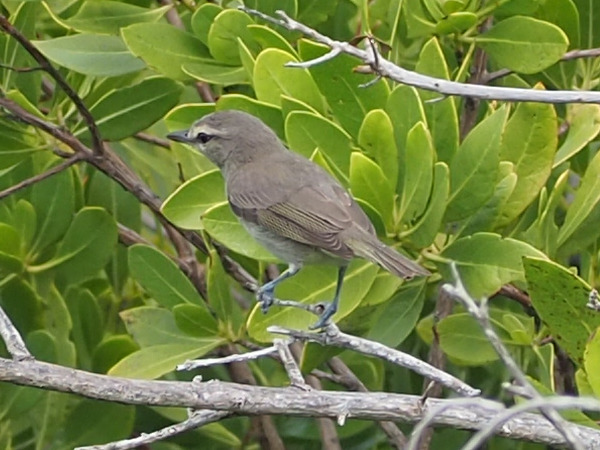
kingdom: Animalia
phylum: Chordata
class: Aves
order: Passeriformes
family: Vireonidae
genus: Vireo
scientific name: Vireo magister
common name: Yucatan vireo
